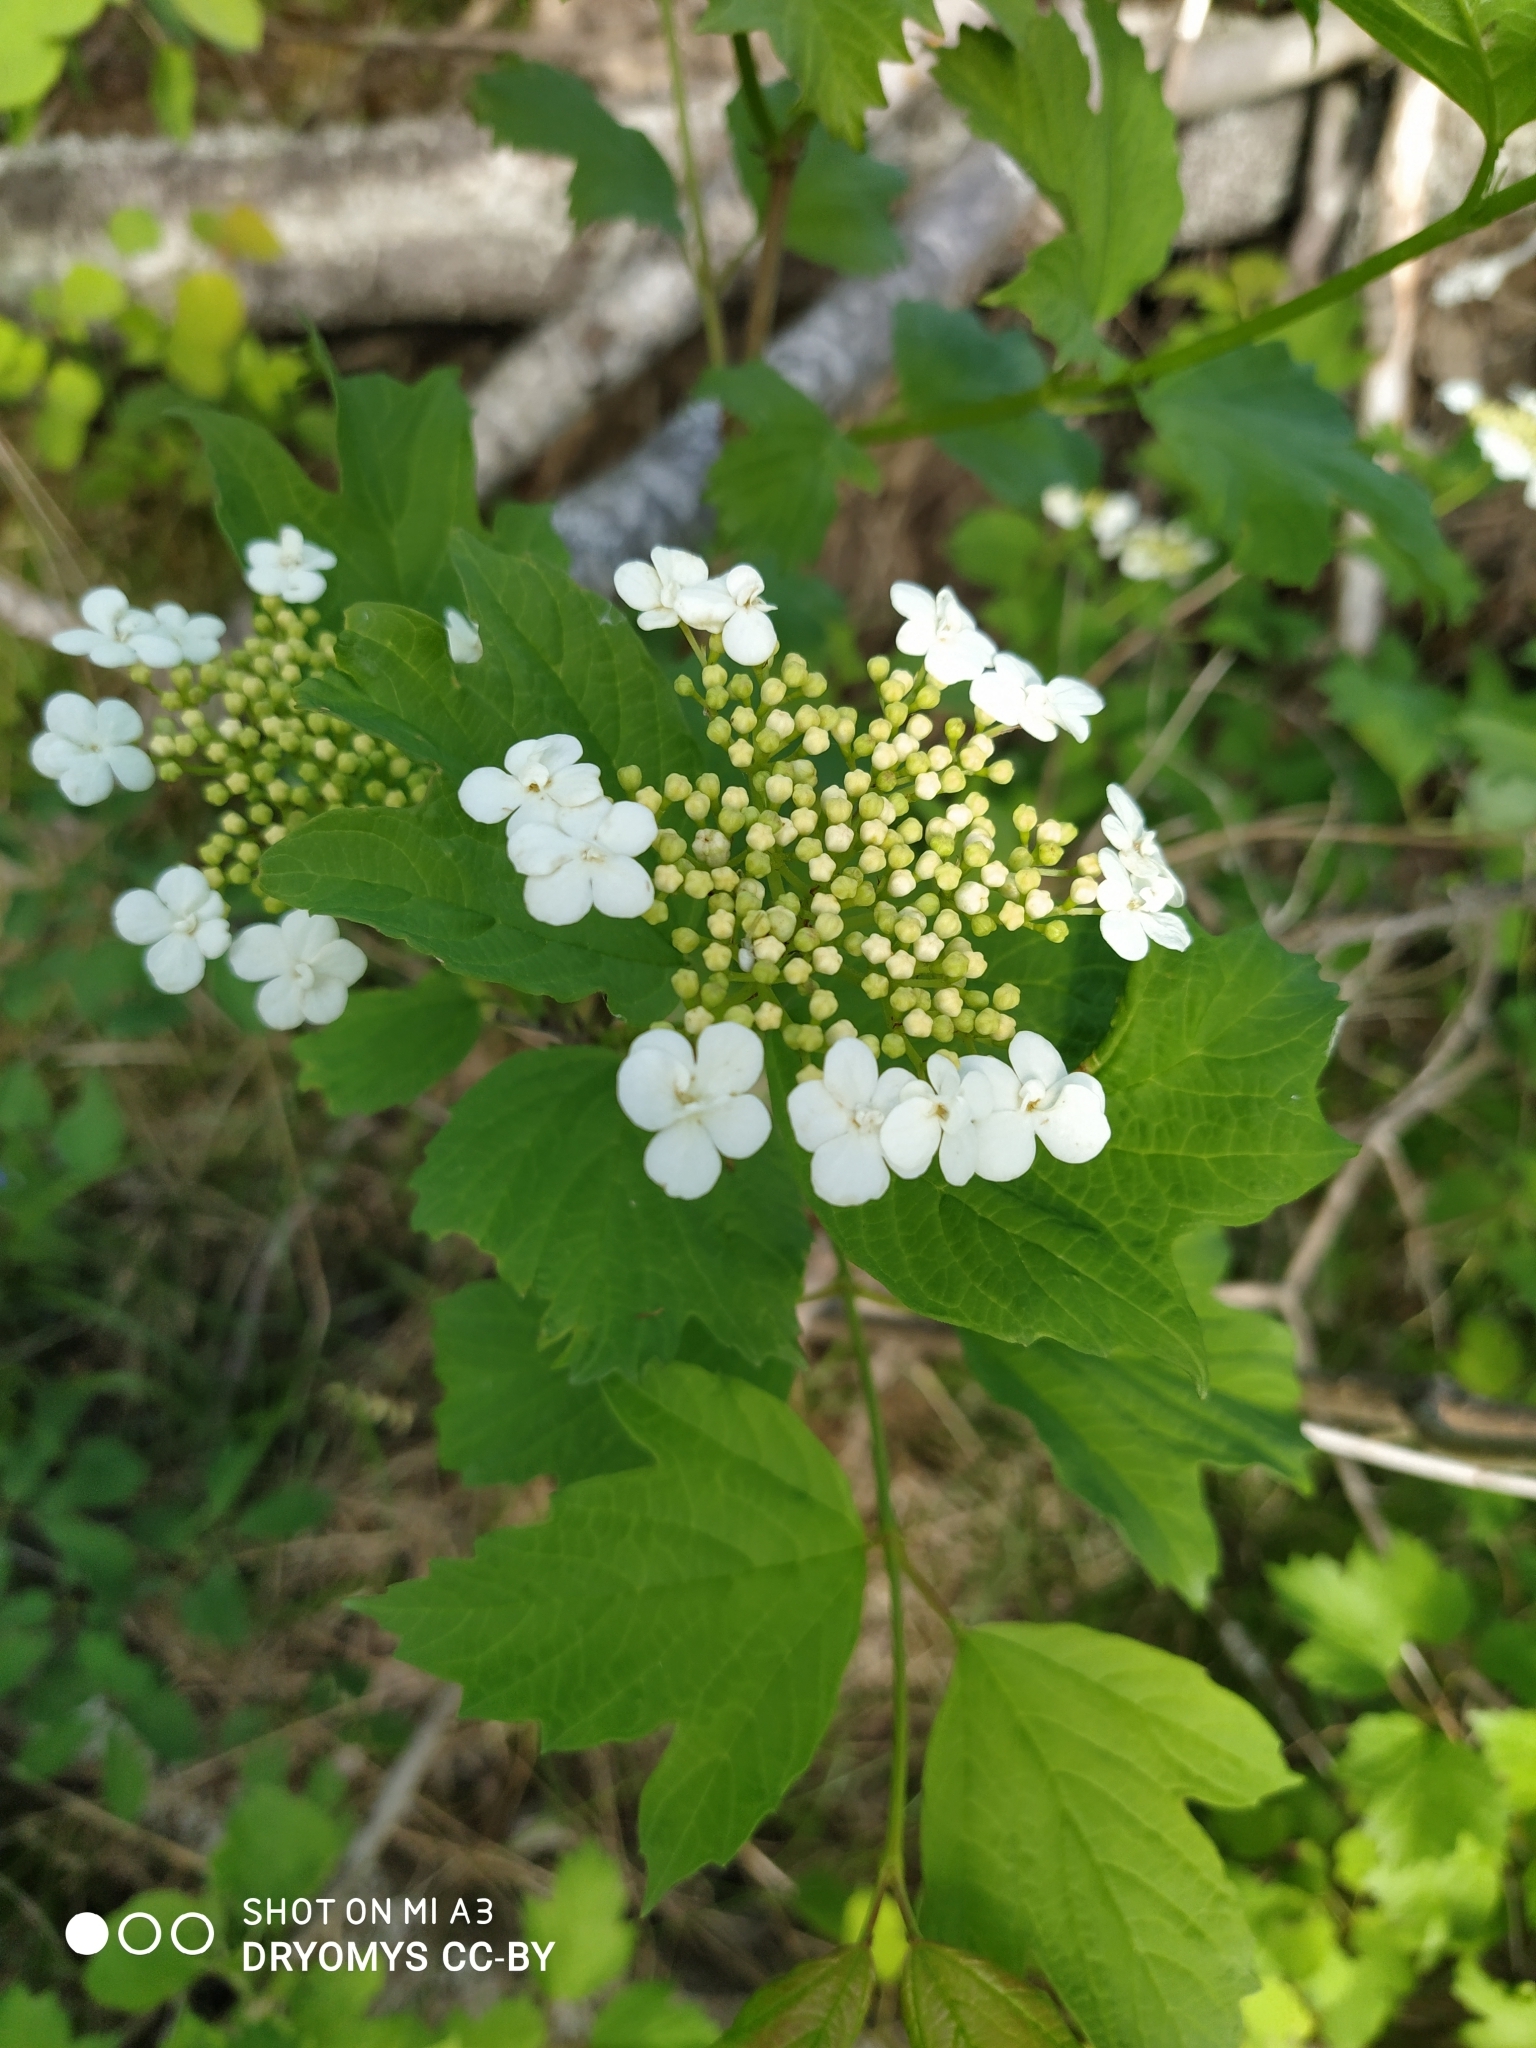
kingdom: Plantae
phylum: Tracheophyta
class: Magnoliopsida
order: Dipsacales
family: Viburnaceae
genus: Viburnum
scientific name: Viburnum opulus
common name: Guelder-rose
